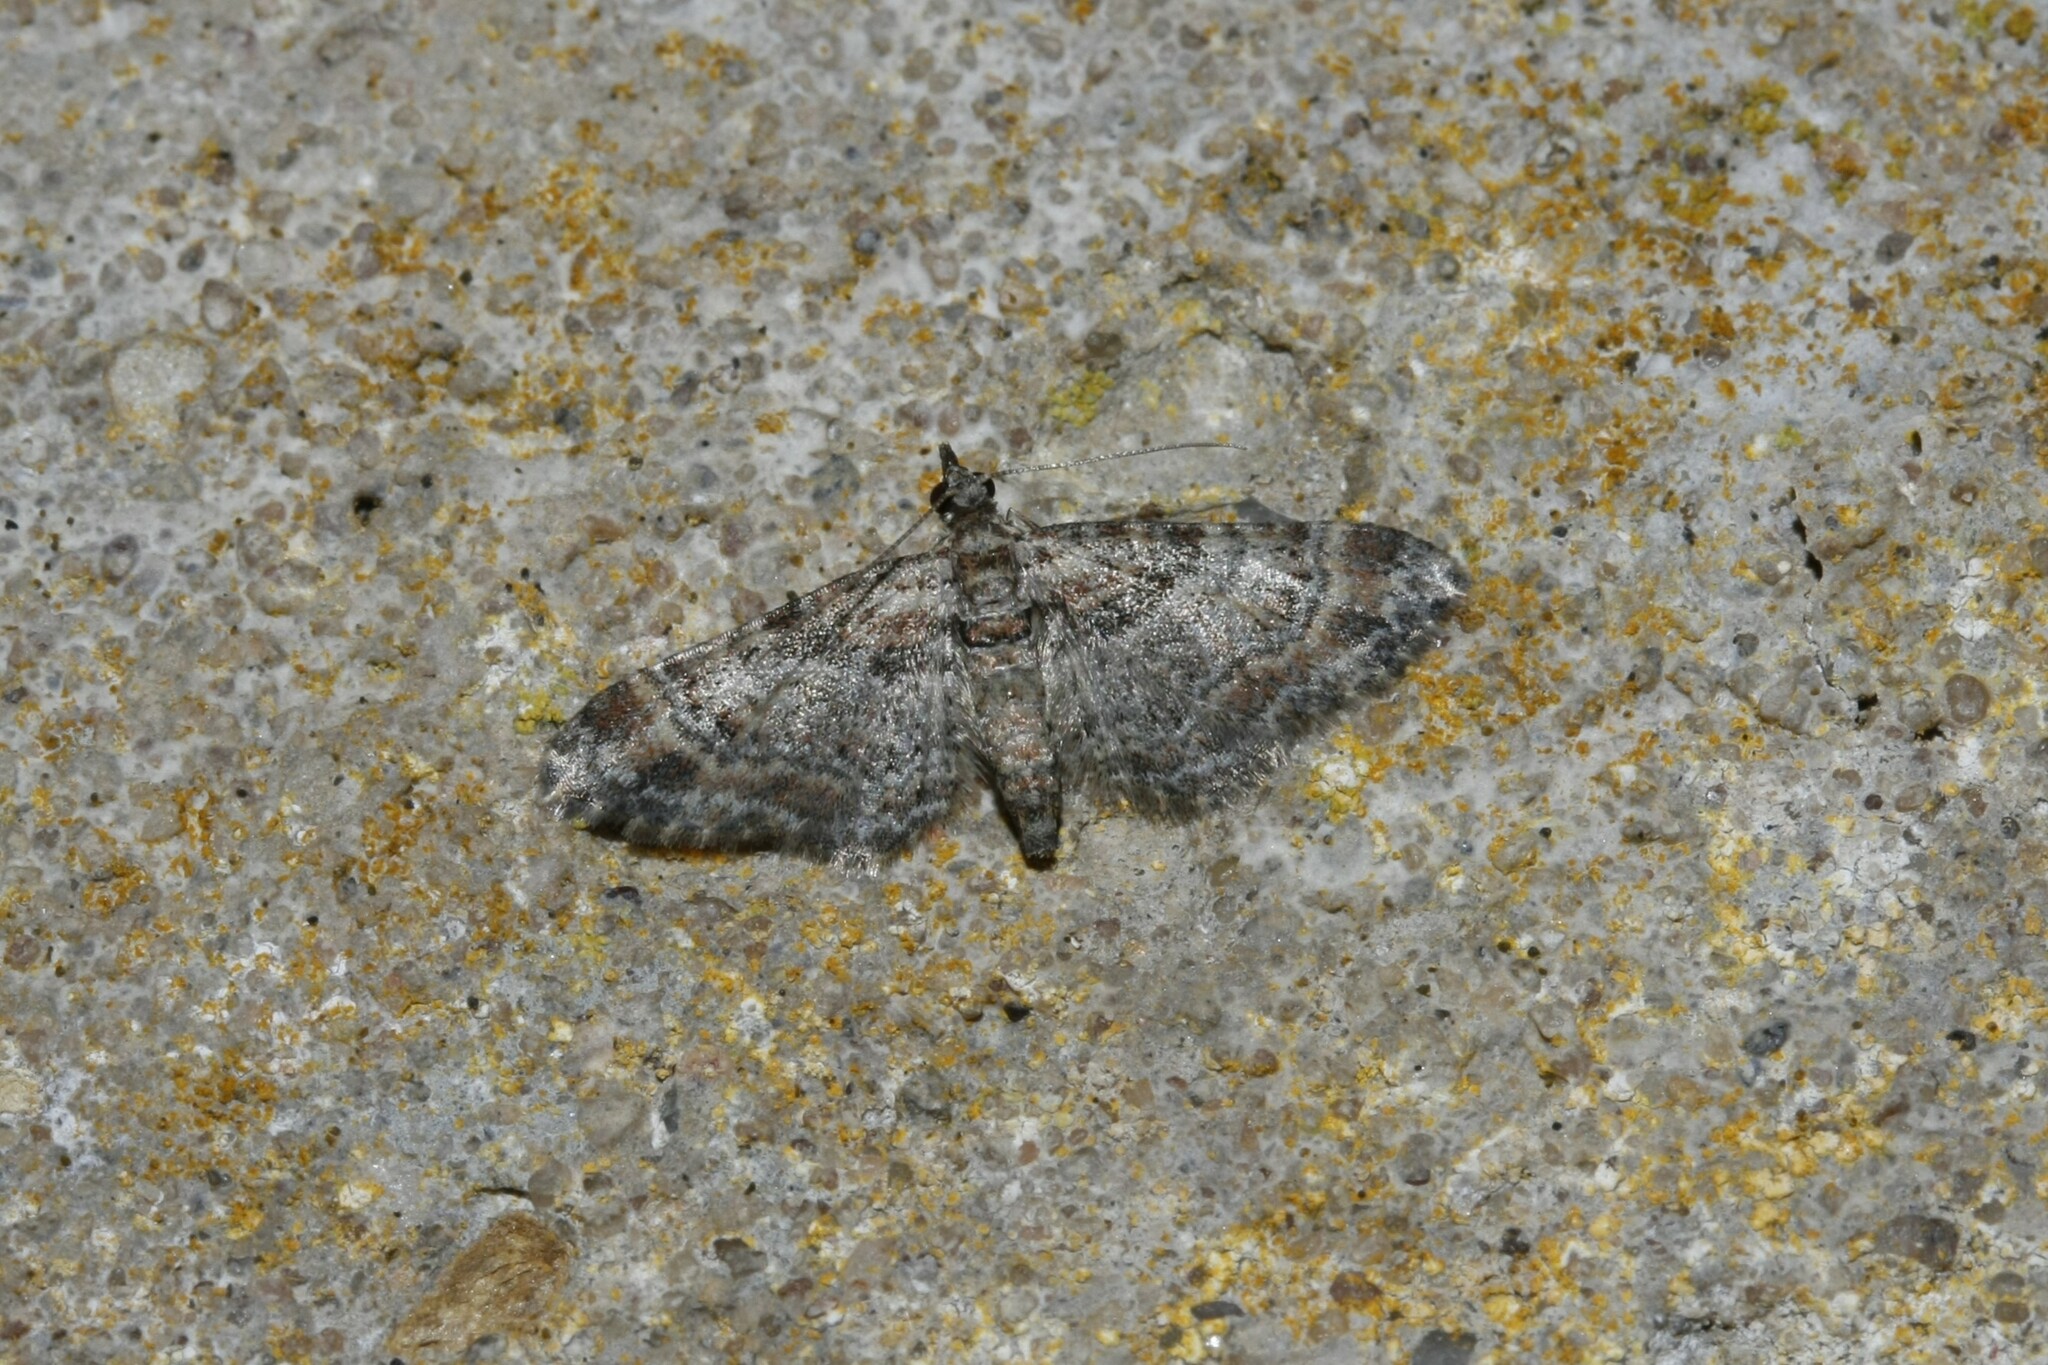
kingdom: Animalia
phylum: Arthropoda
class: Insecta
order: Lepidoptera
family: Geometridae
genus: Gymnoscelis
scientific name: Gymnoscelis rufifasciata
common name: Double-striped pug
